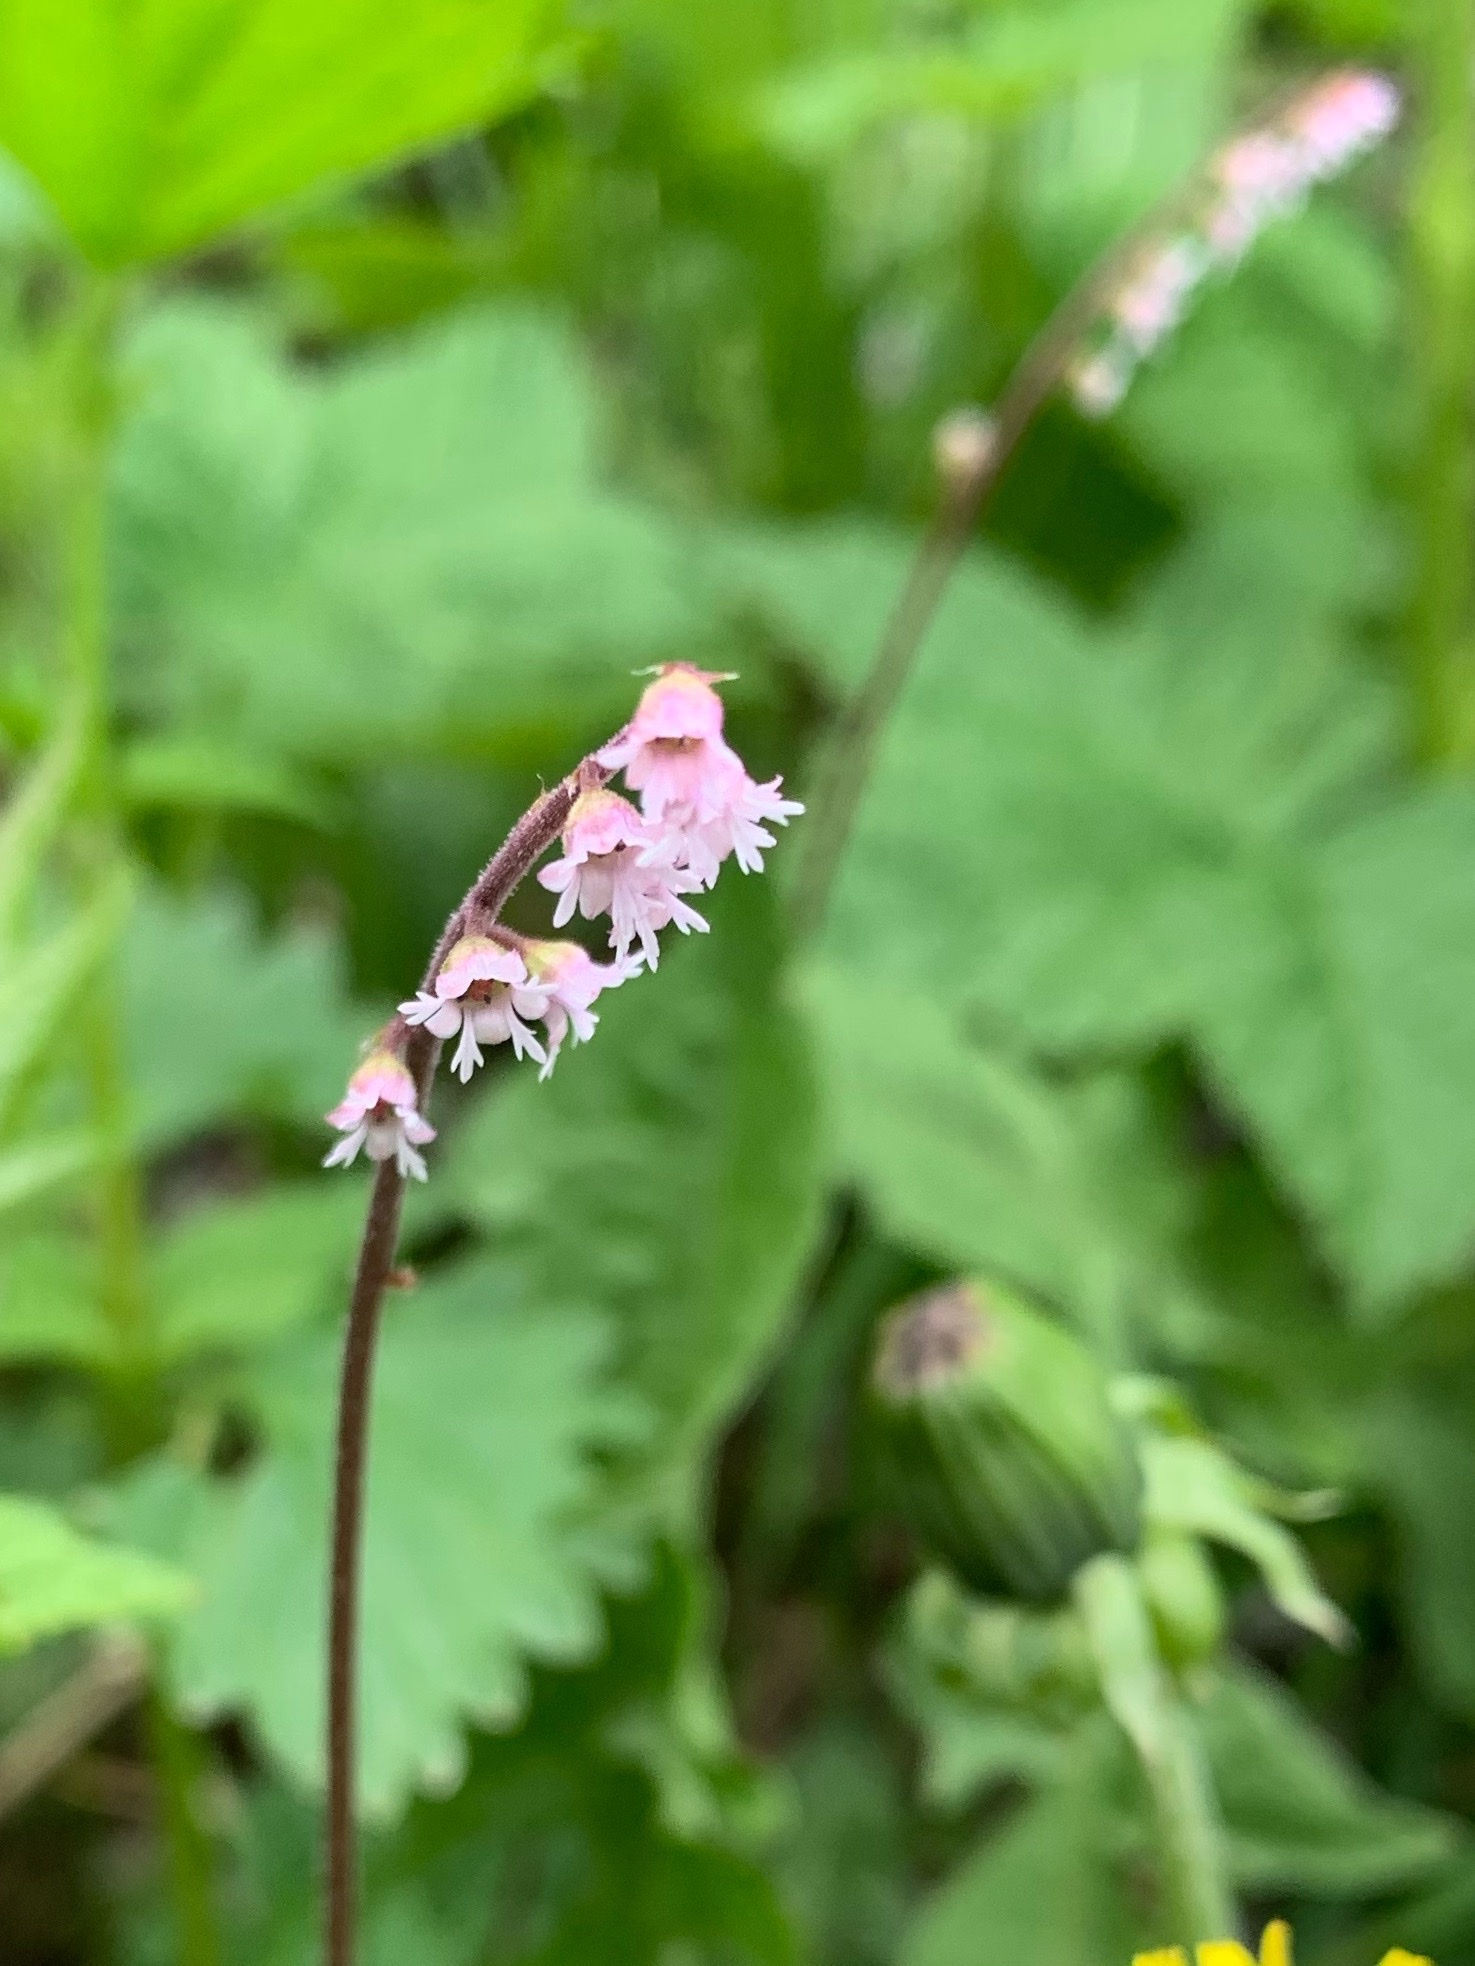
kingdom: Plantae
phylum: Tracheophyta
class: Magnoliopsida
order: Saxifragales
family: Saxifragaceae
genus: Ozomelis
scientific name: Ozomelis trifida
